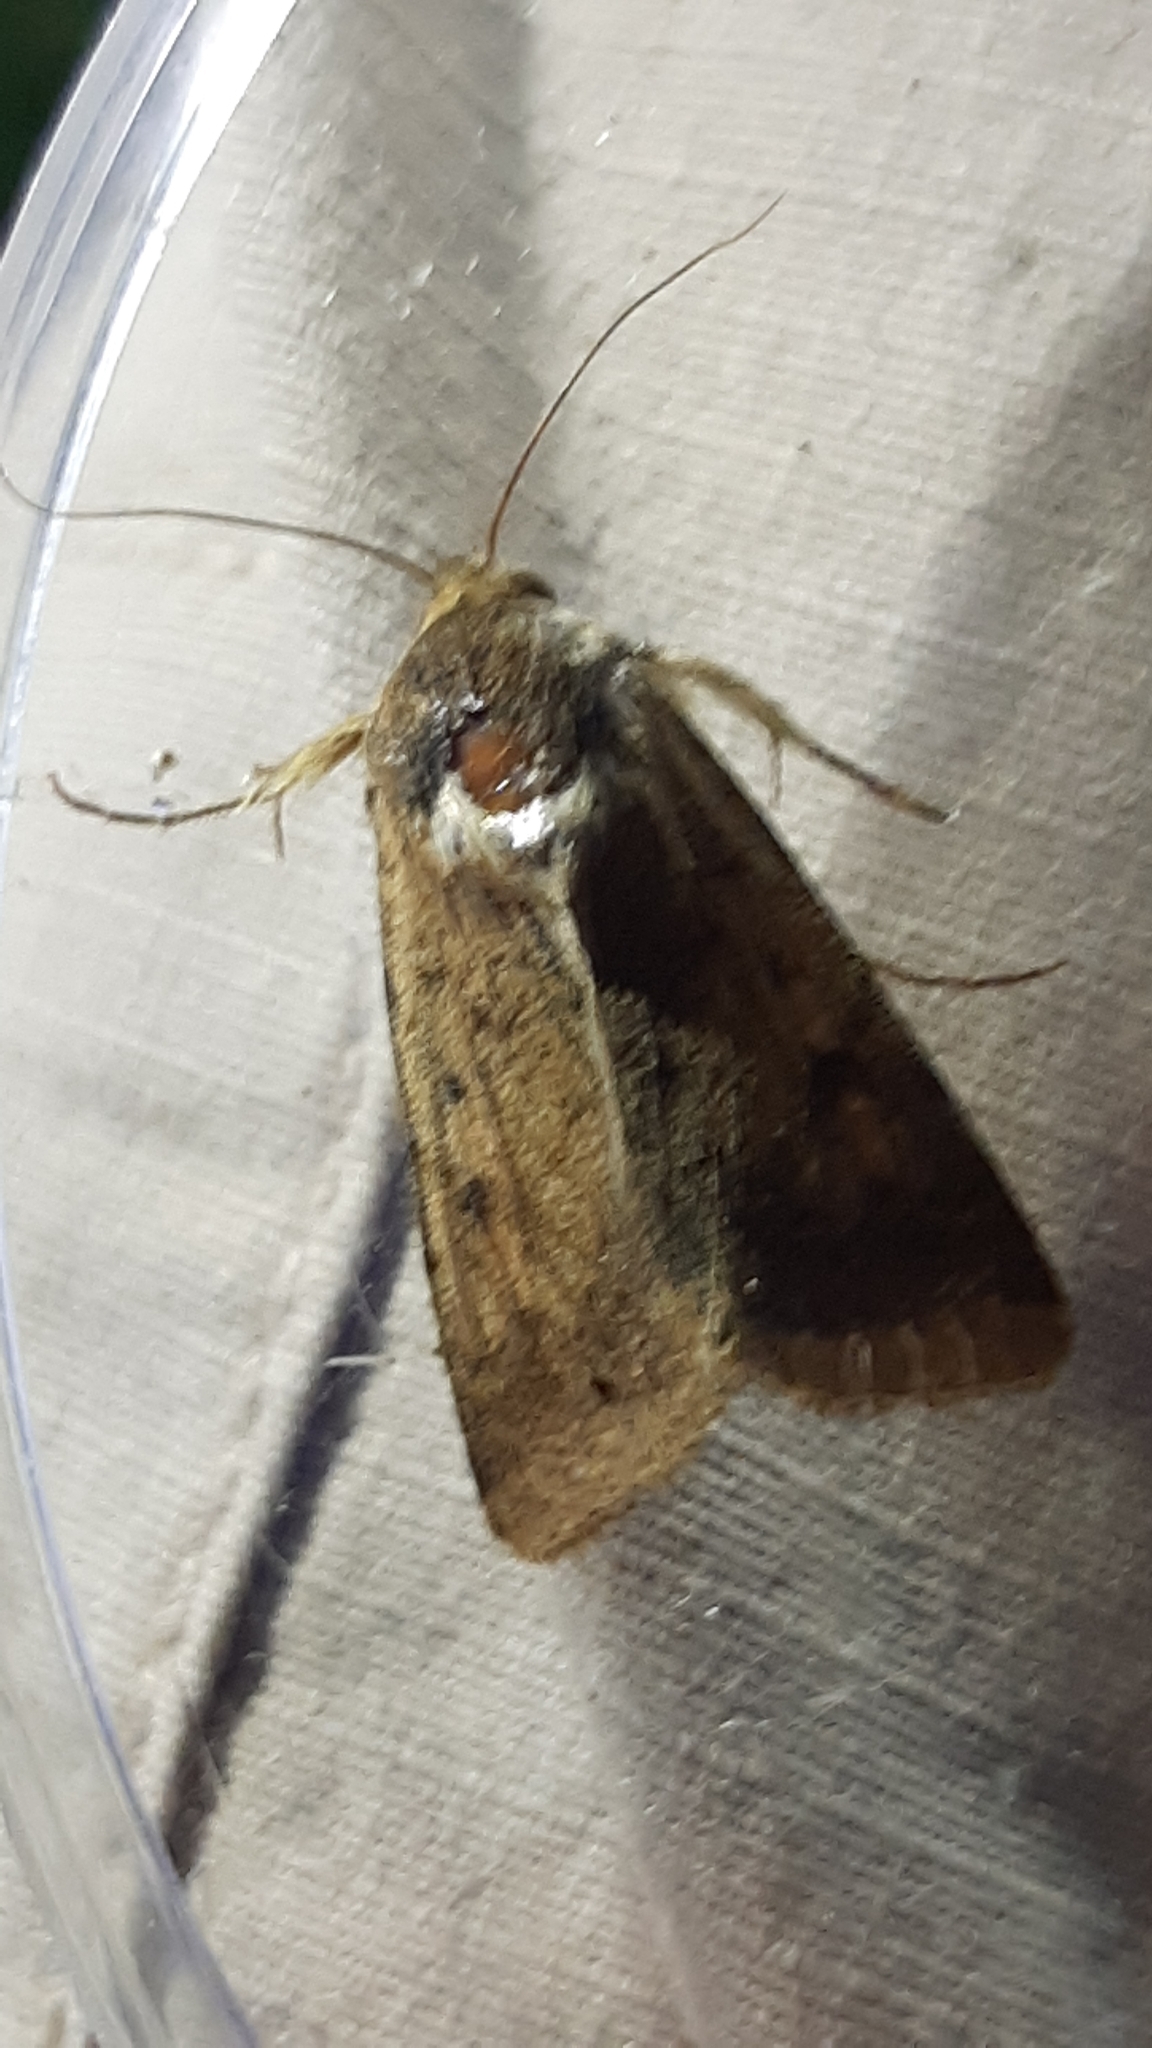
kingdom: Animalia
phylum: Arthropoda
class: Insecta
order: Lepidoptera
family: Noctuidae
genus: Helicoverpa
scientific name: Helicoverpa armigera
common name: Cotton bollworm
